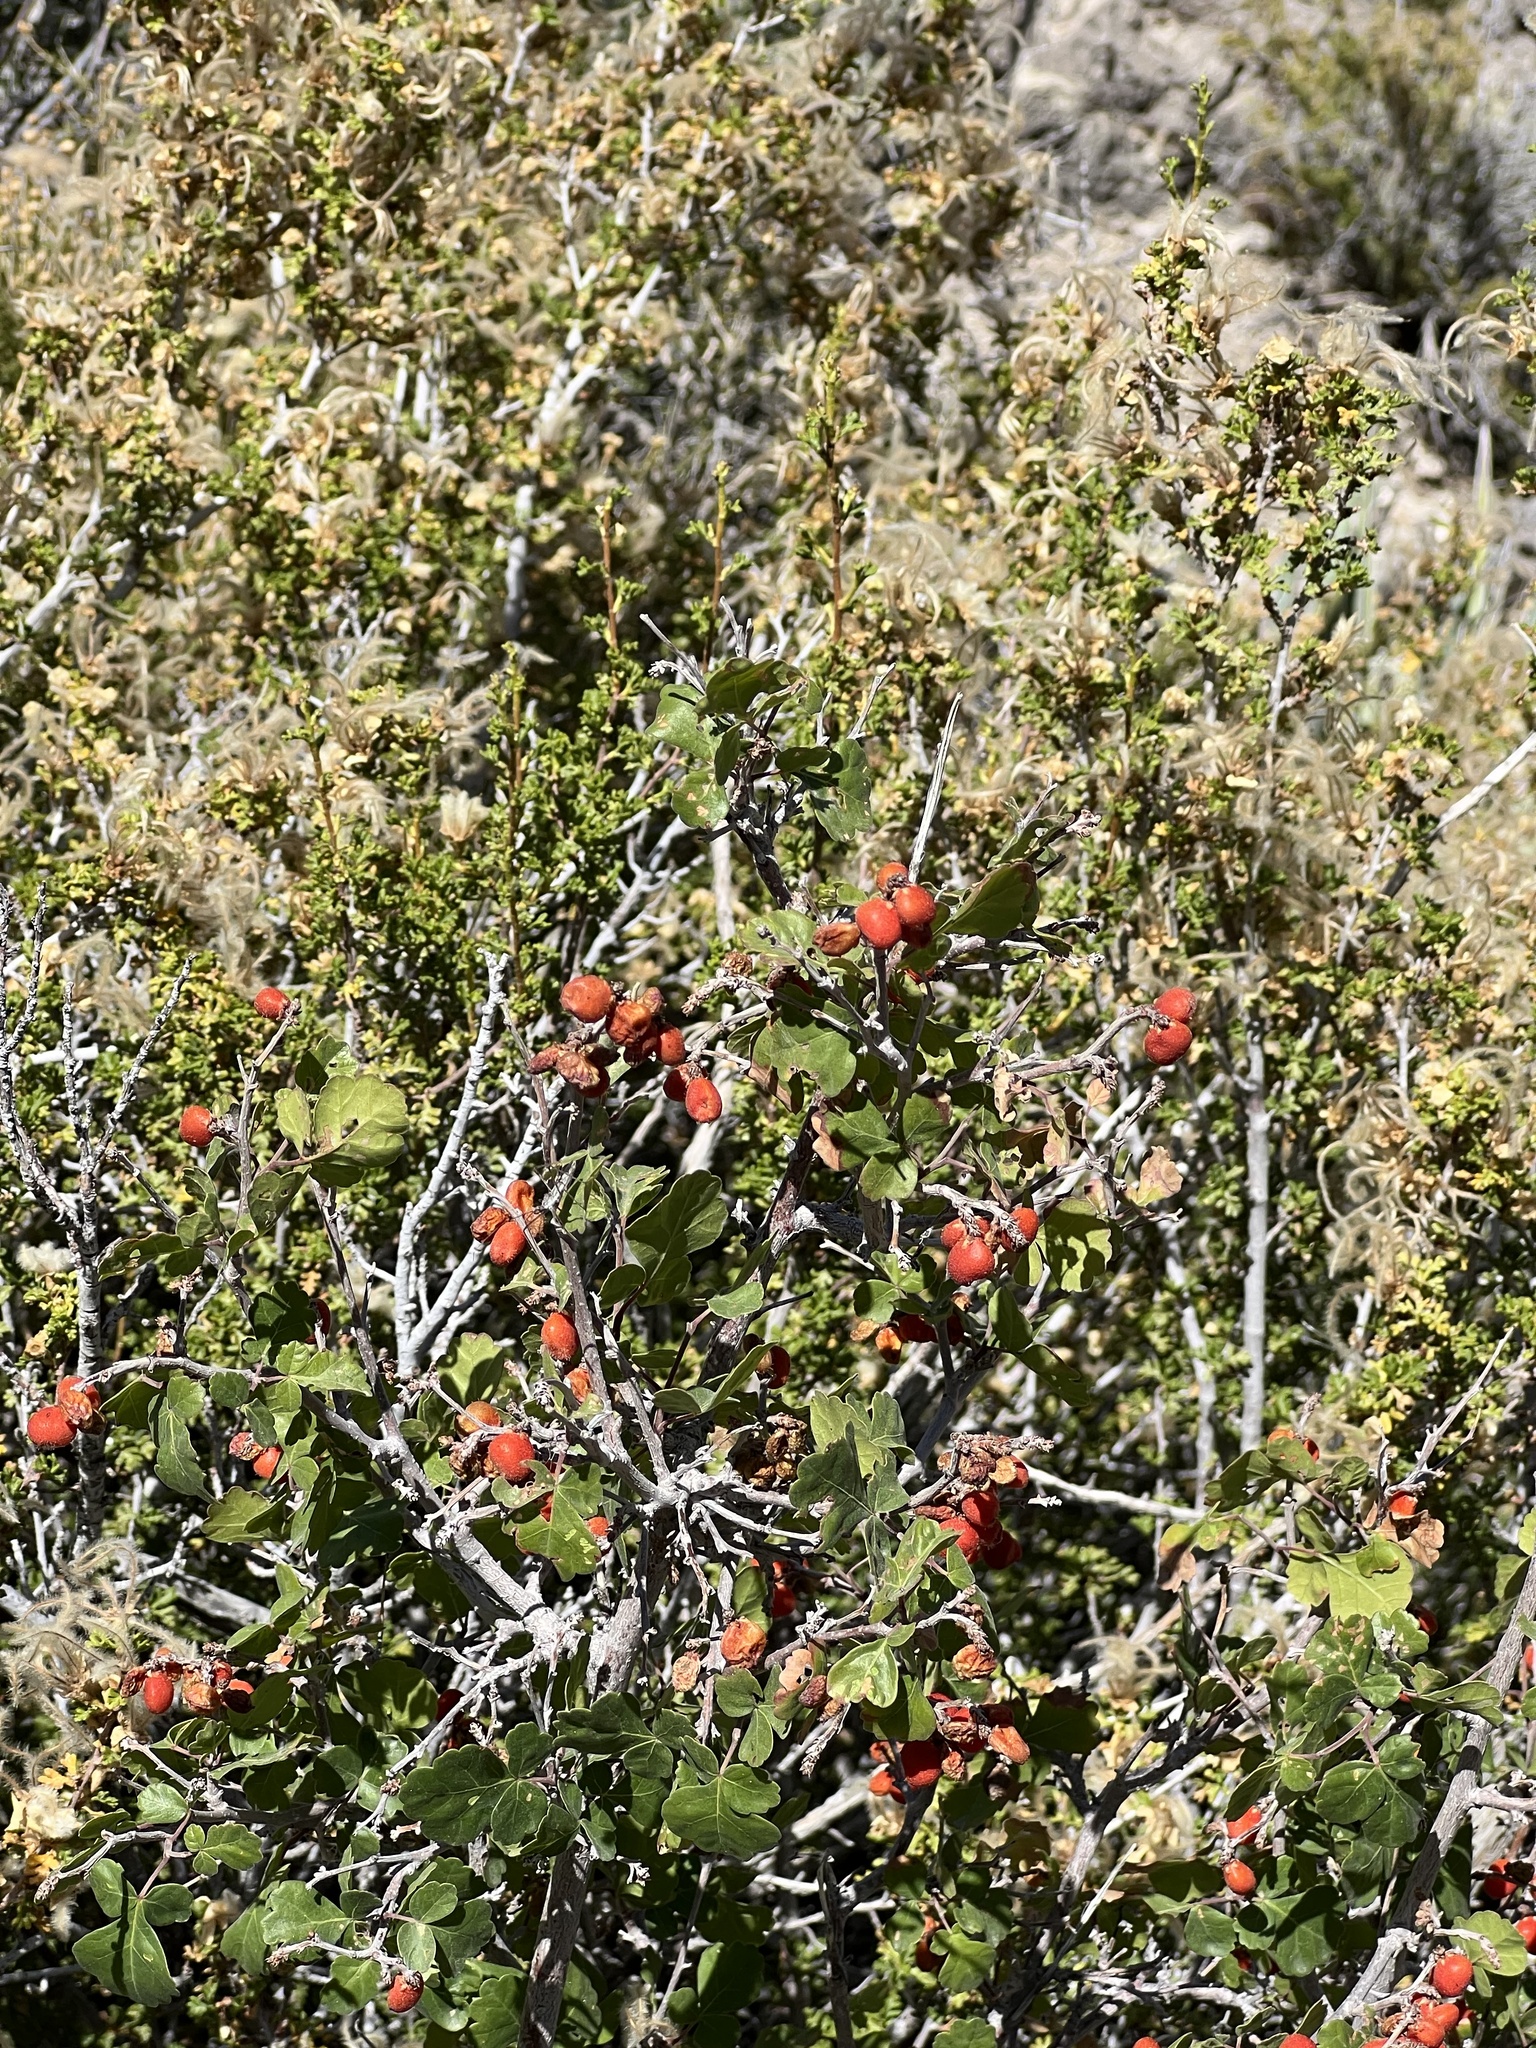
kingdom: Plantae
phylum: Tracheophyta
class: Magnoliopsida
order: Sapindales
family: Anacardiaceae
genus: Rhus
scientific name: Rhus aromatica
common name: Aromatic sumac
